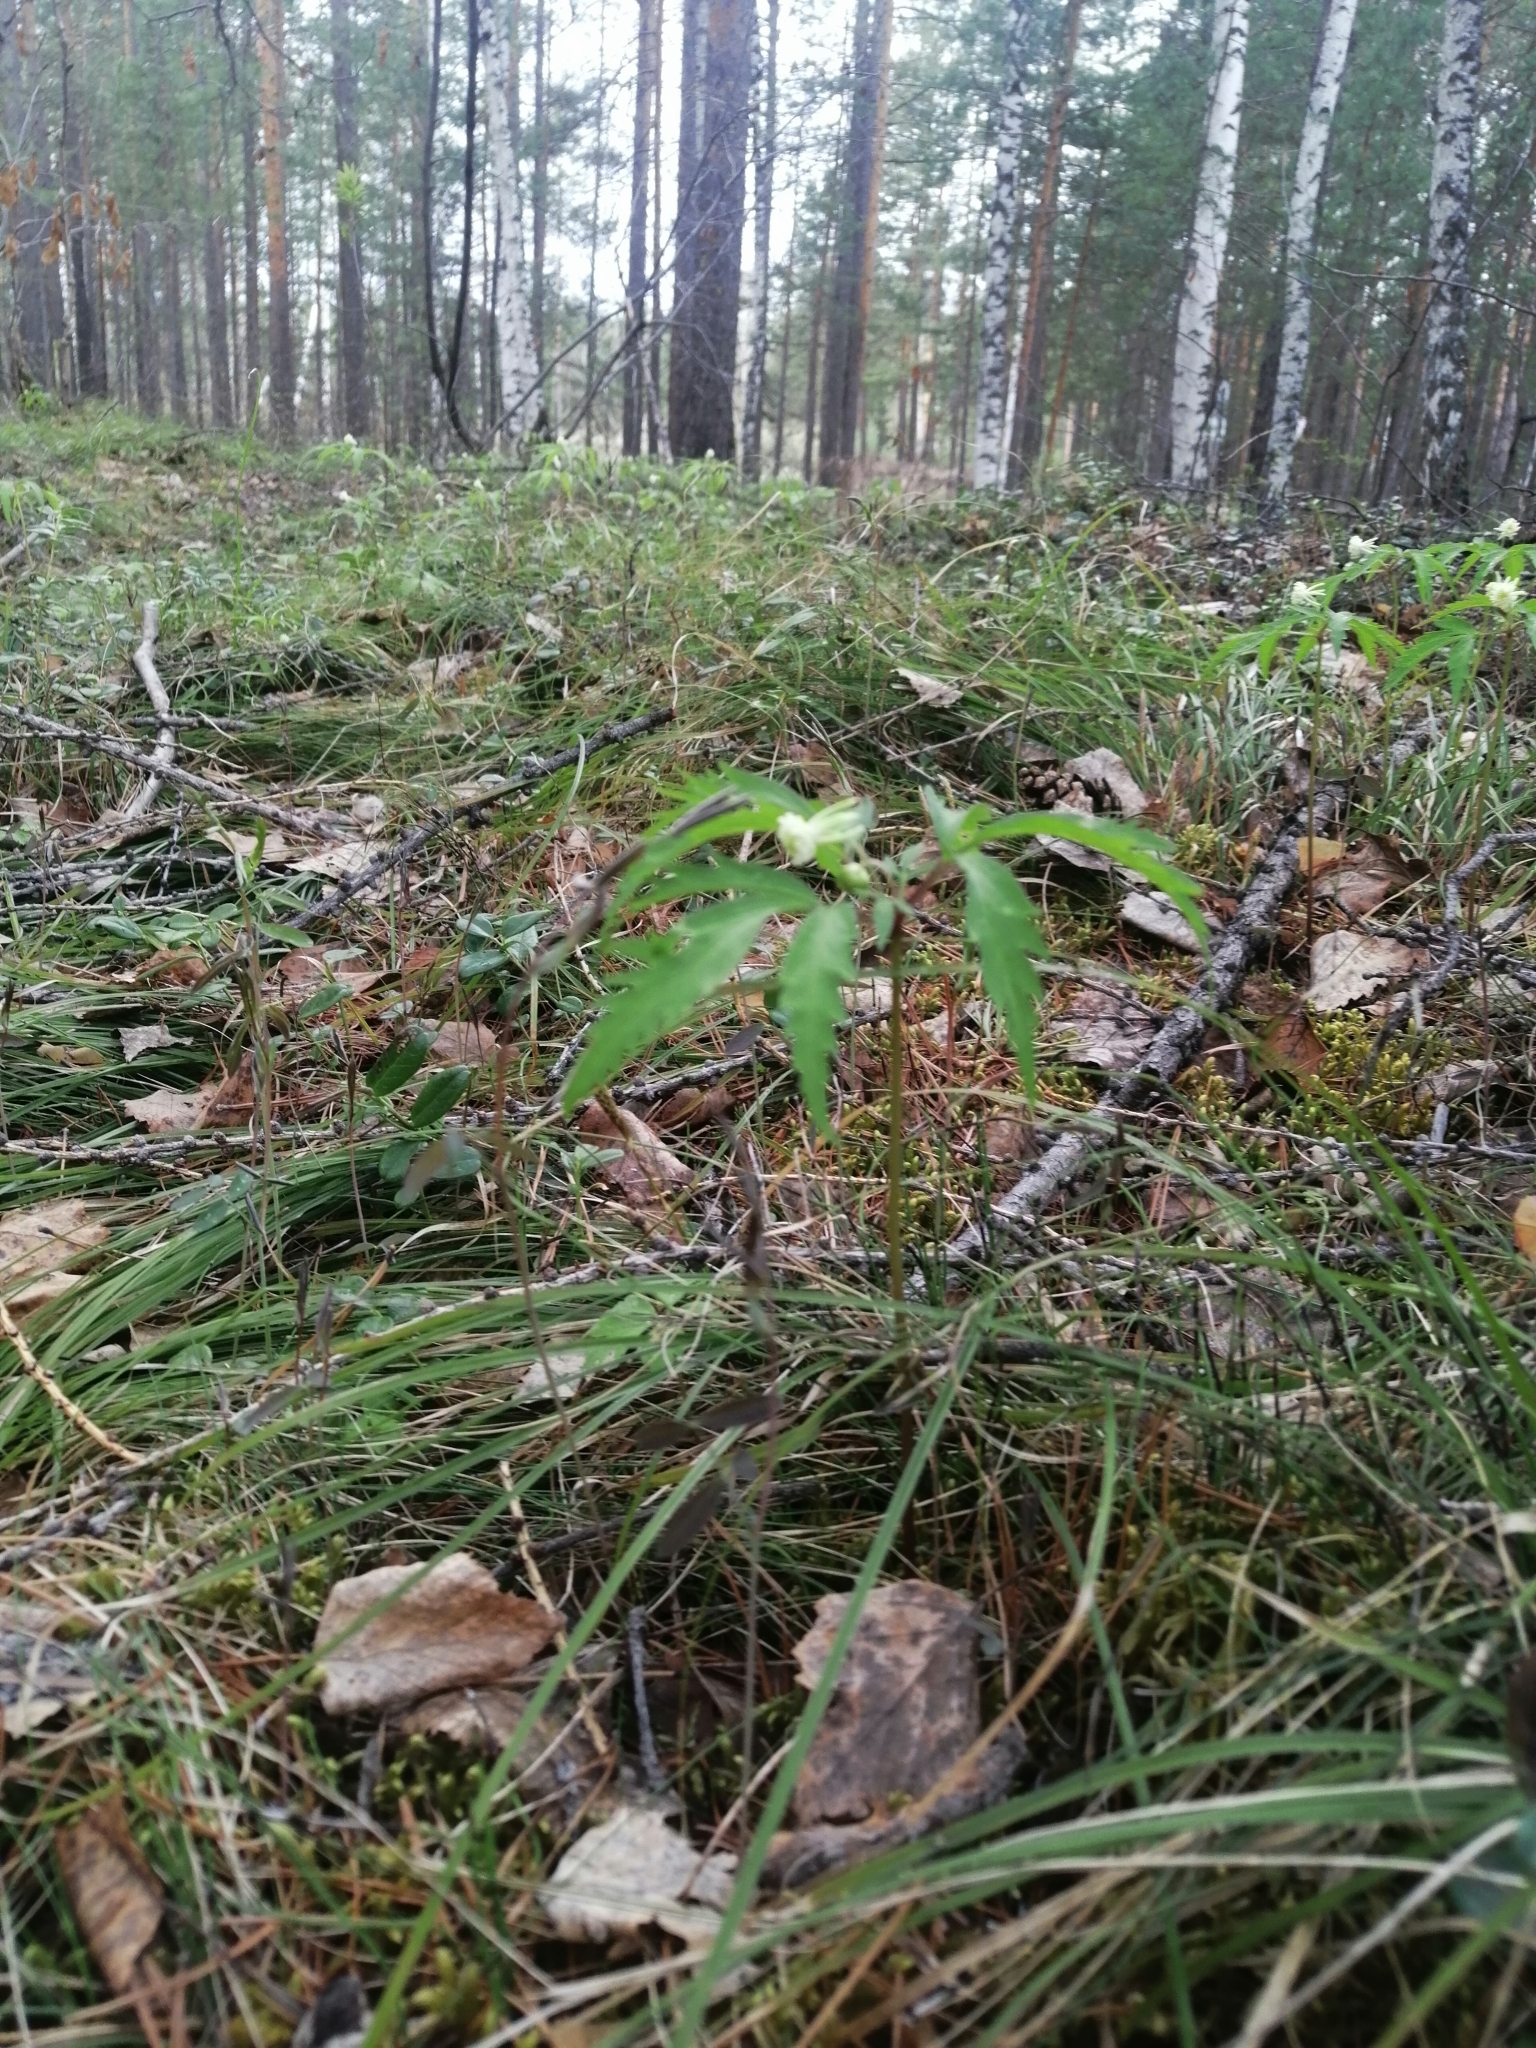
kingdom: Plantae
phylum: Tracheophyta
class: Magnoliopsida
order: Ranunculales
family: Ranunculaceae
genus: Anemone
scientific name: Anemone reflexa
